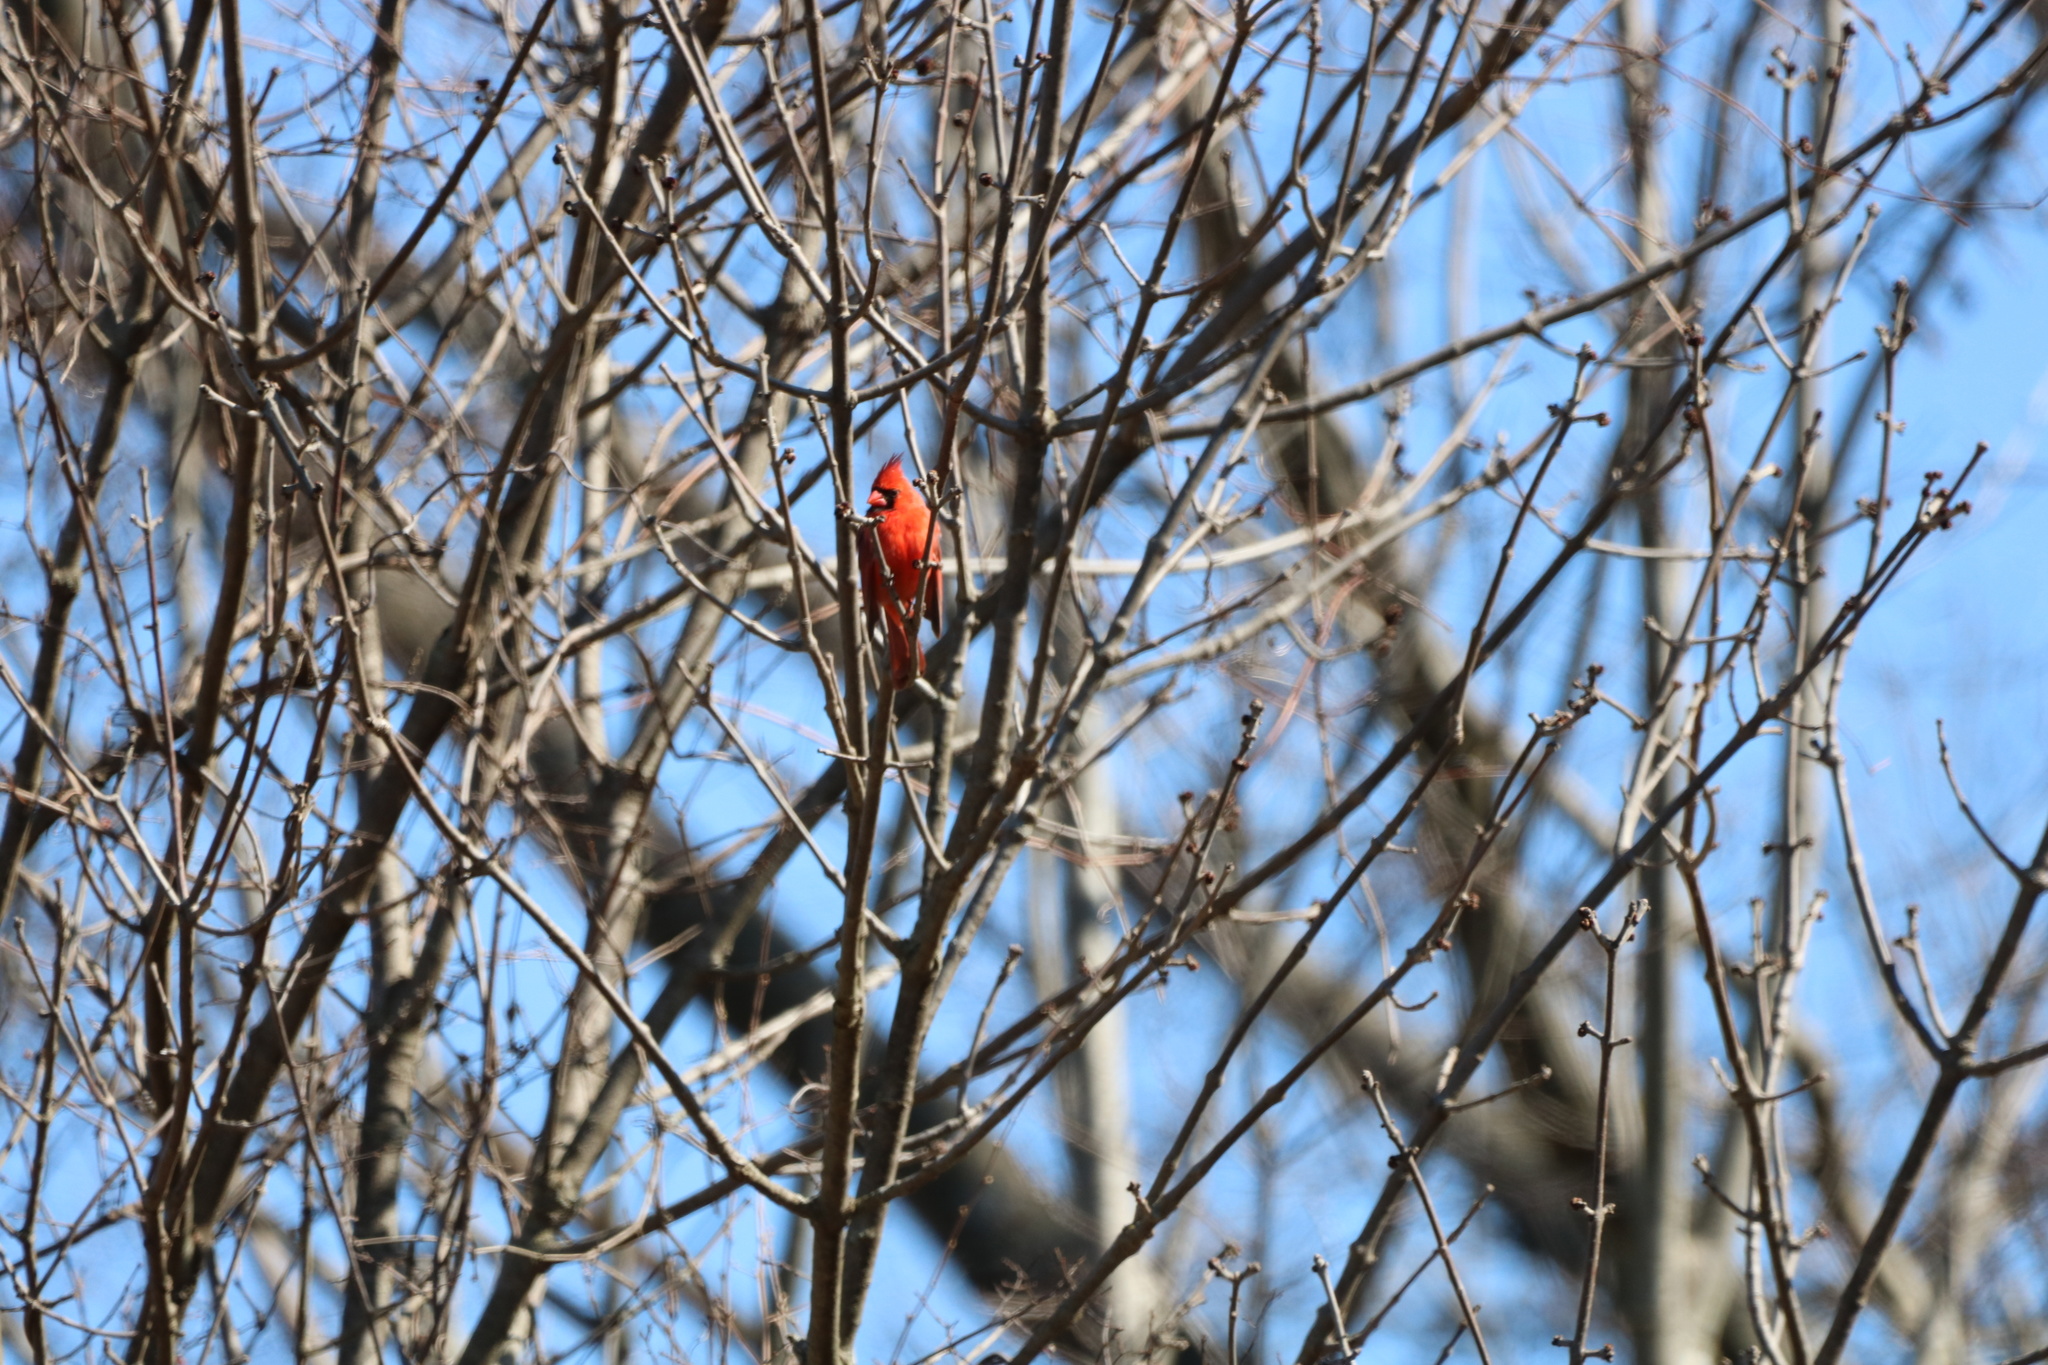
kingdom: Animalia
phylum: Chordata
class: Aves
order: Passeriformes
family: Cardinalidae
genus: Cardinalis
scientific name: Cardinalis cardinalis
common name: Northern cardinal
